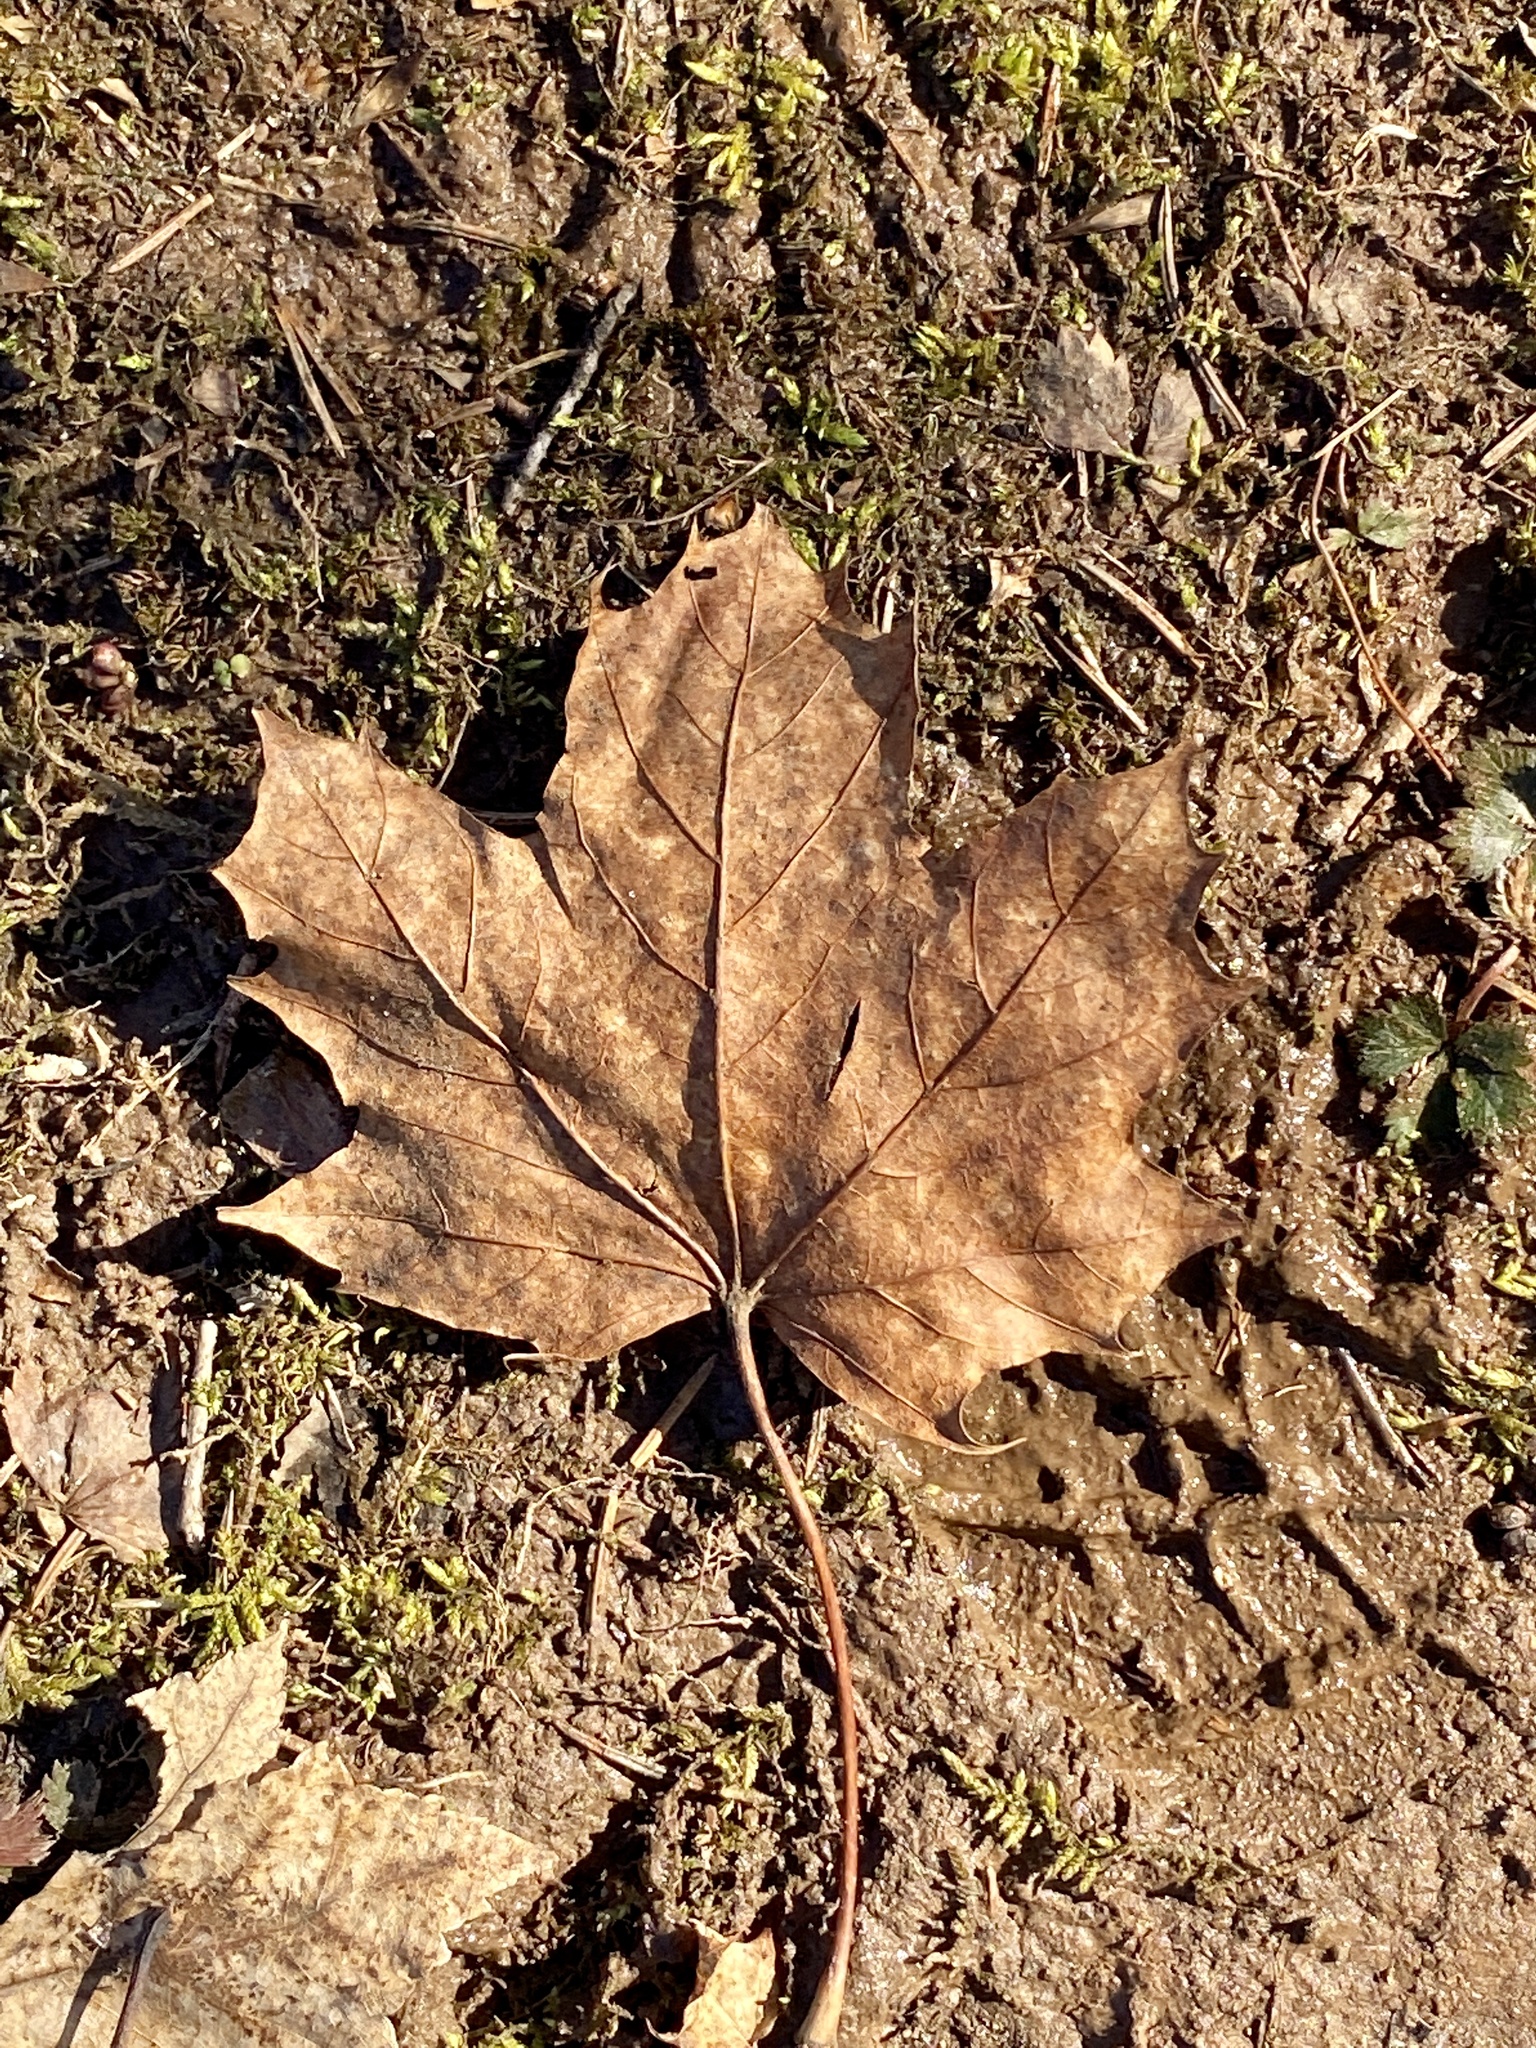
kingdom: Plantae
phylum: Tracheophyta
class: Magnoliopsida
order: Sapindales
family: Sapindaceae
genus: Acer
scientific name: Acer saccharum
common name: Sugar maple
